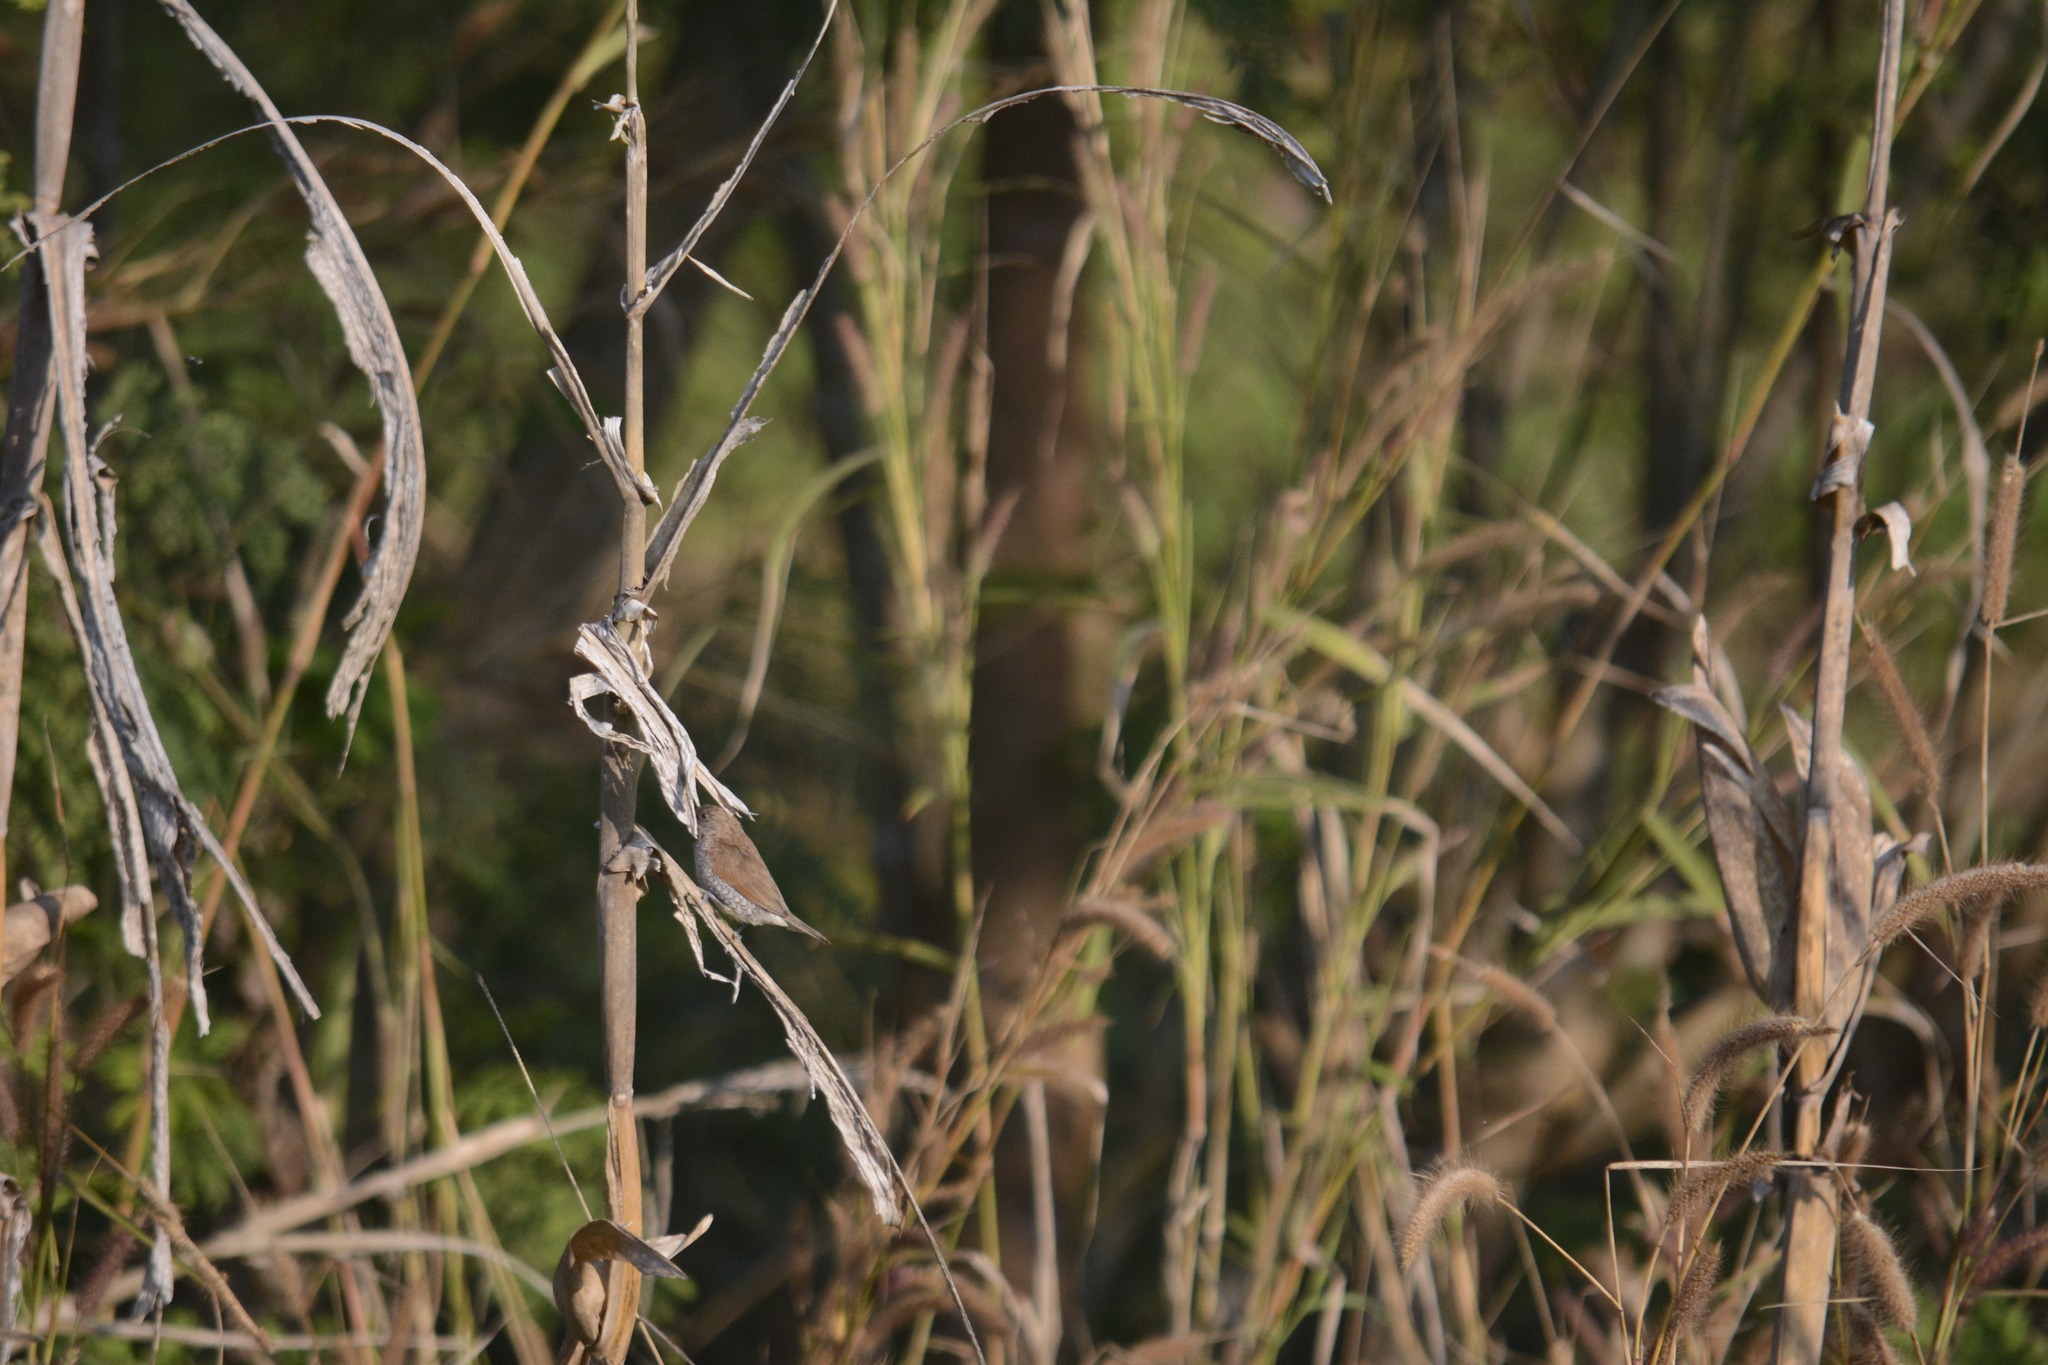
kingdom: Animalia
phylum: Chordata
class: Aves
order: Passeriformes
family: Estrildidae
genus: Lonchura
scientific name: Lonchura punctulata
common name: Scaly-breasted munia
